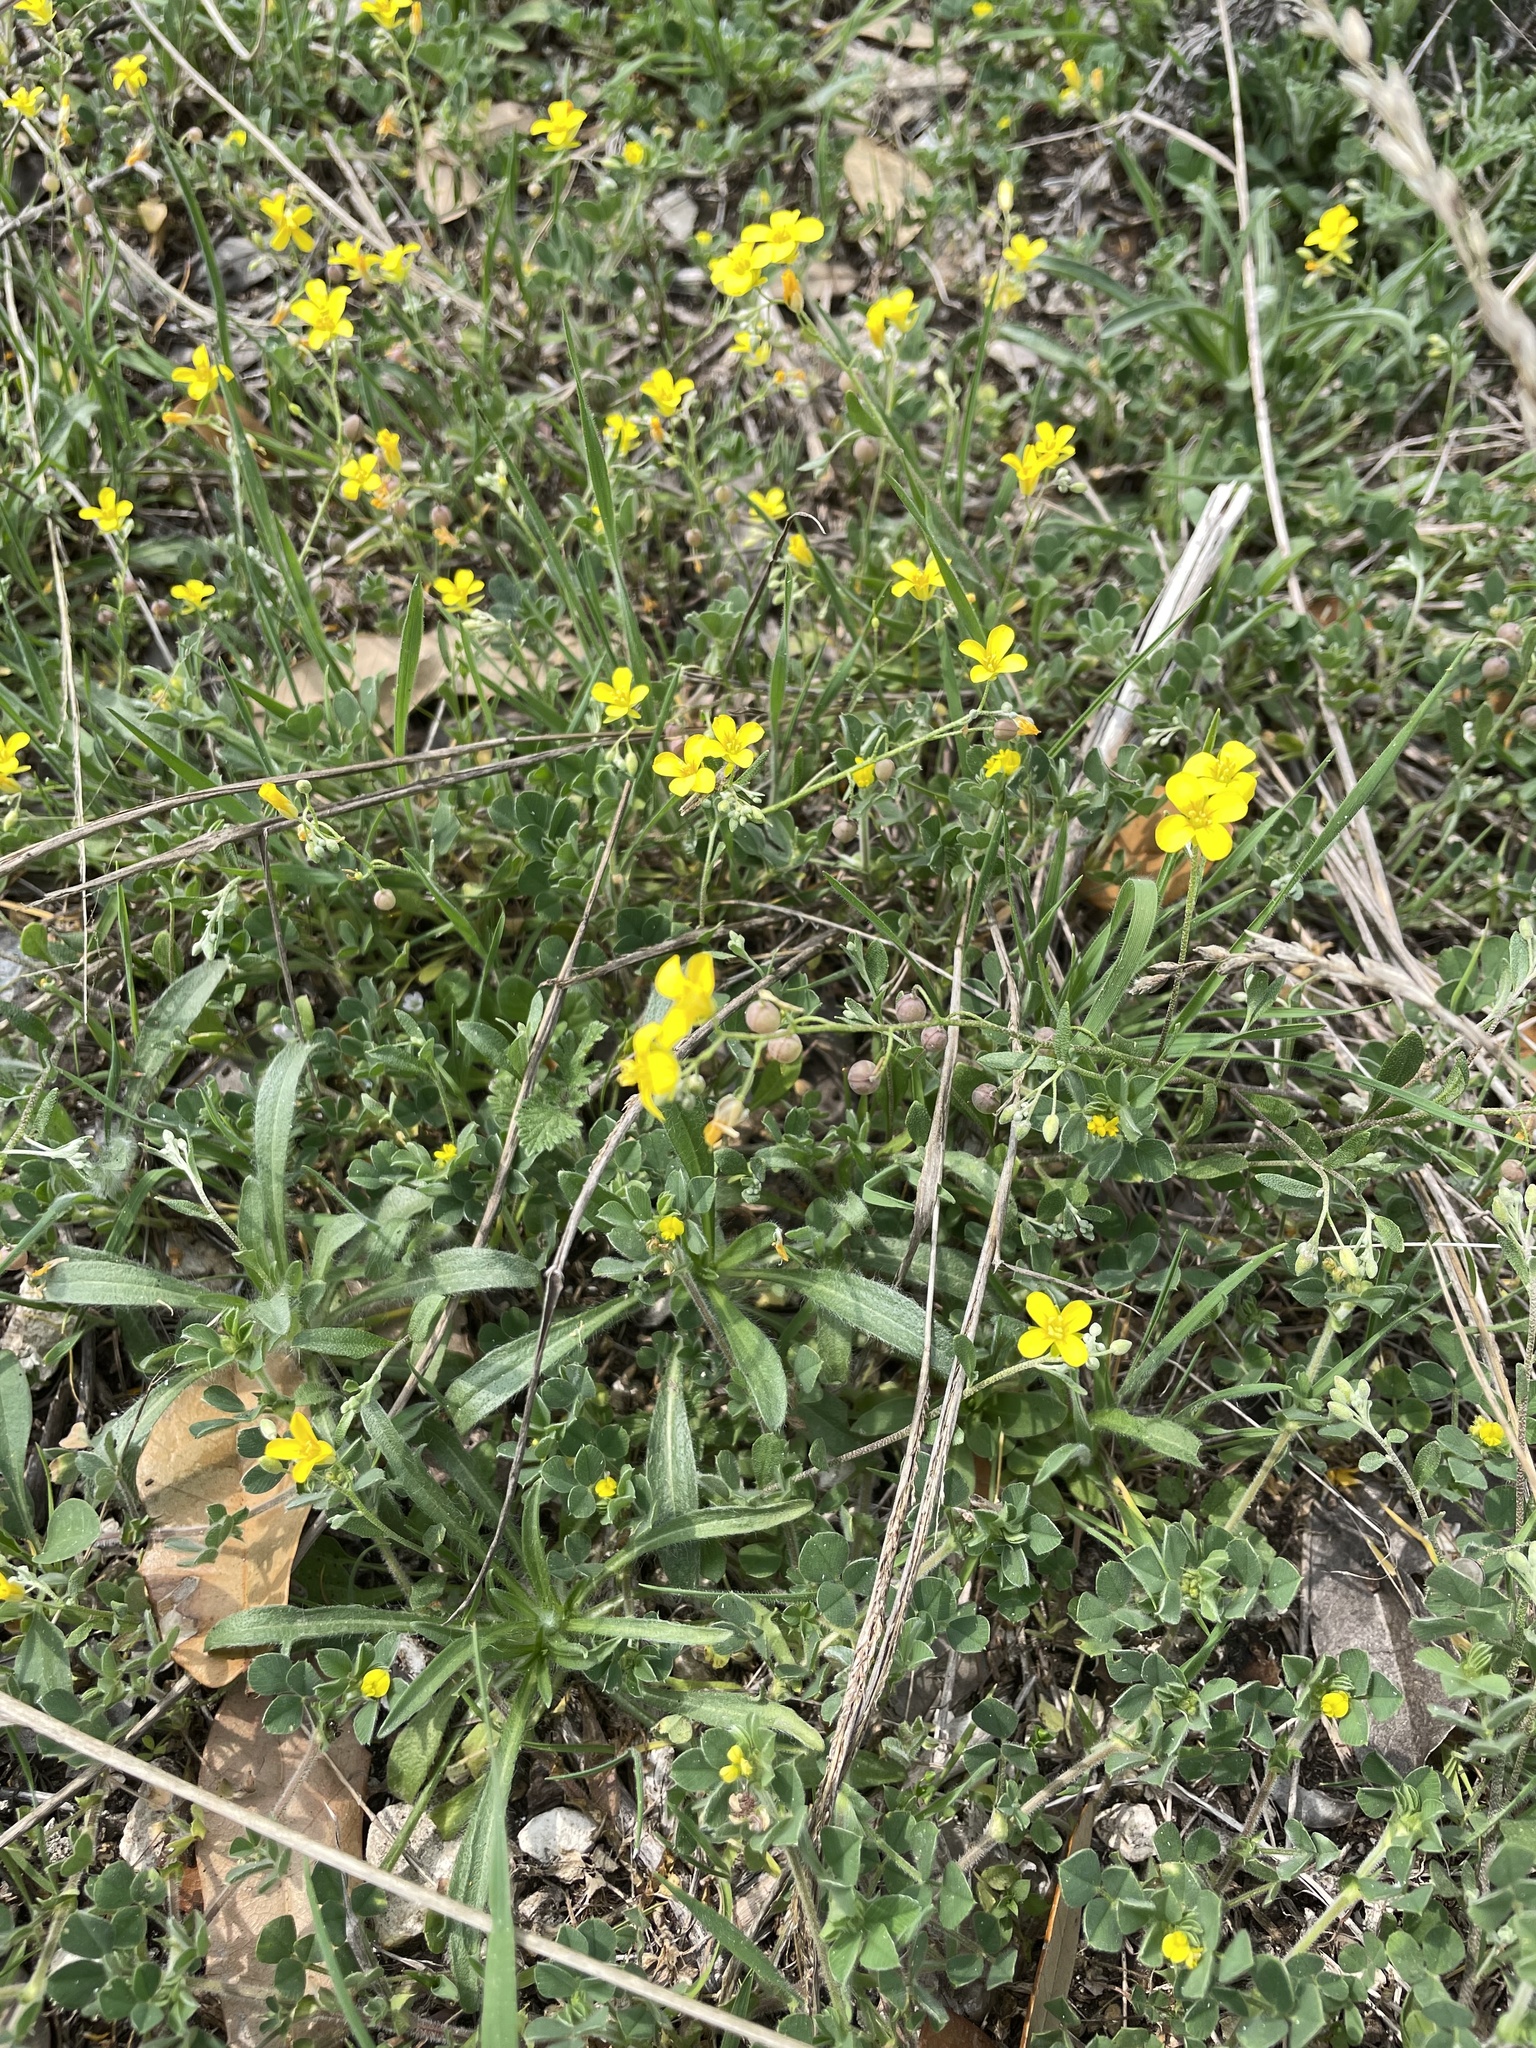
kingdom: Plantae
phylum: Tracheophyta
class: Magnoliopsida
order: Brassicales
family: Brassicaceae
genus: Physaria
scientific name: Physaria recurvata
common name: Gaslight bladderpod
